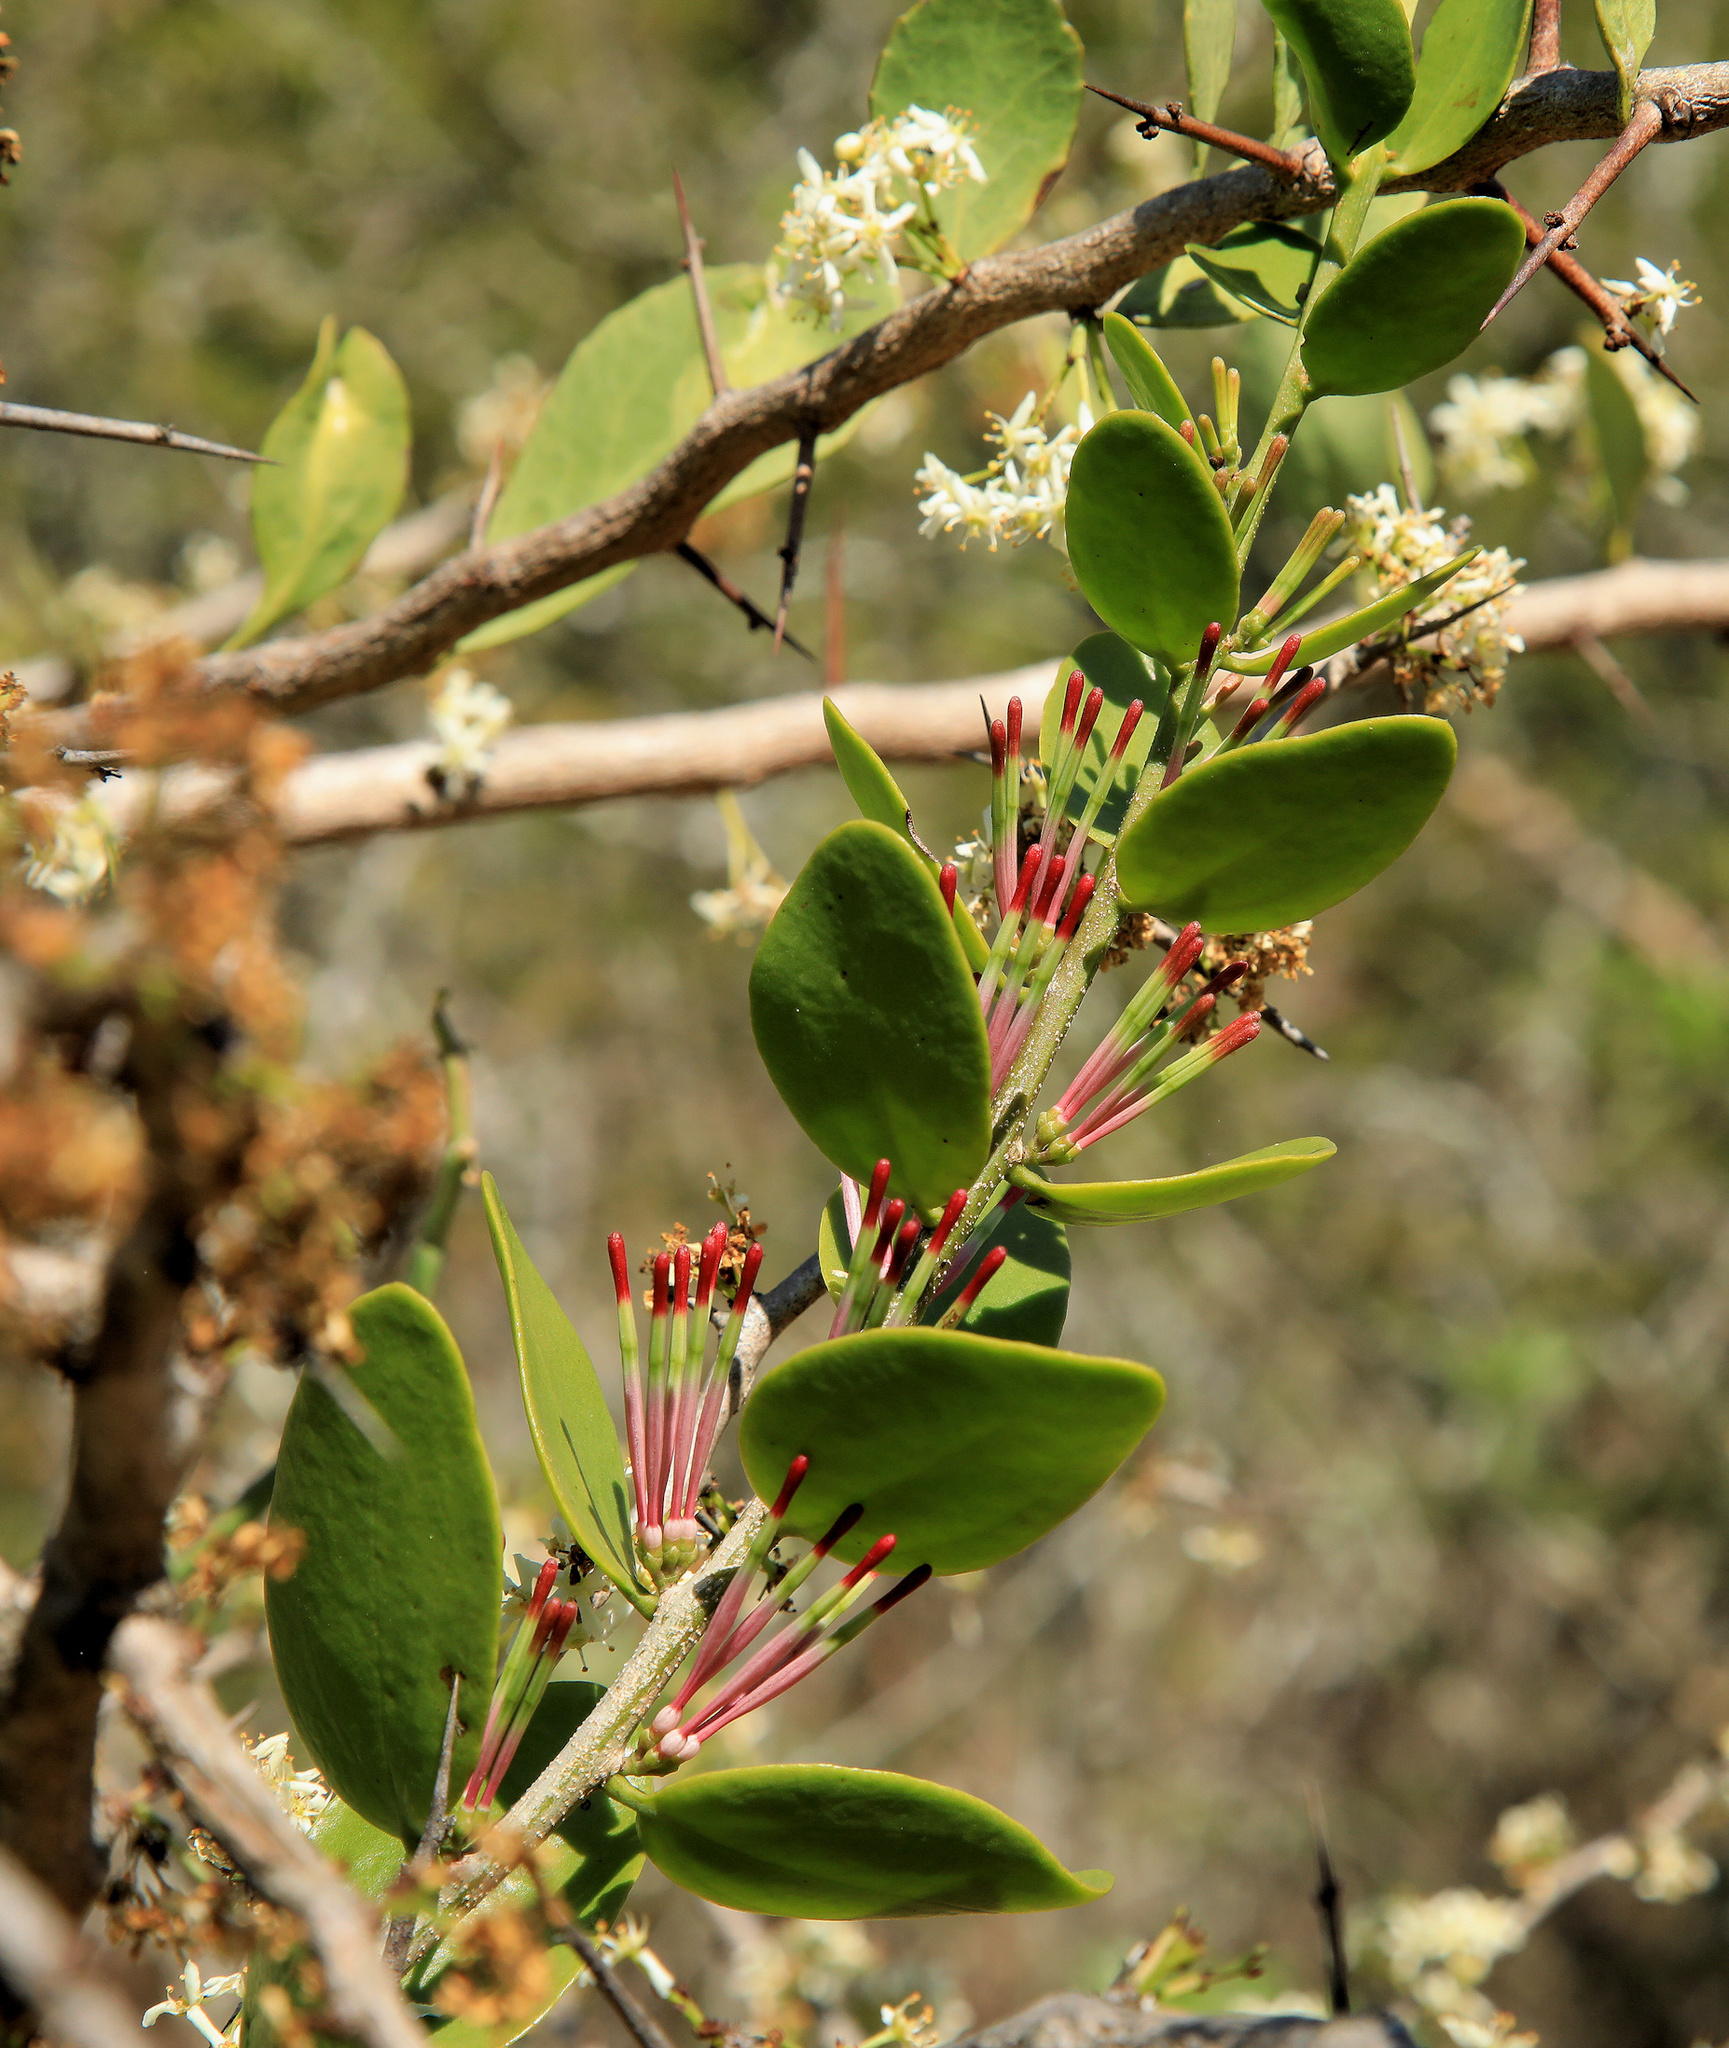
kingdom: Plantae
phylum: Tracheophyta
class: Magnoliopsida
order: Santalales
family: Loranthaceae
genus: Oncocalyx
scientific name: Oncocalyx bolusii
